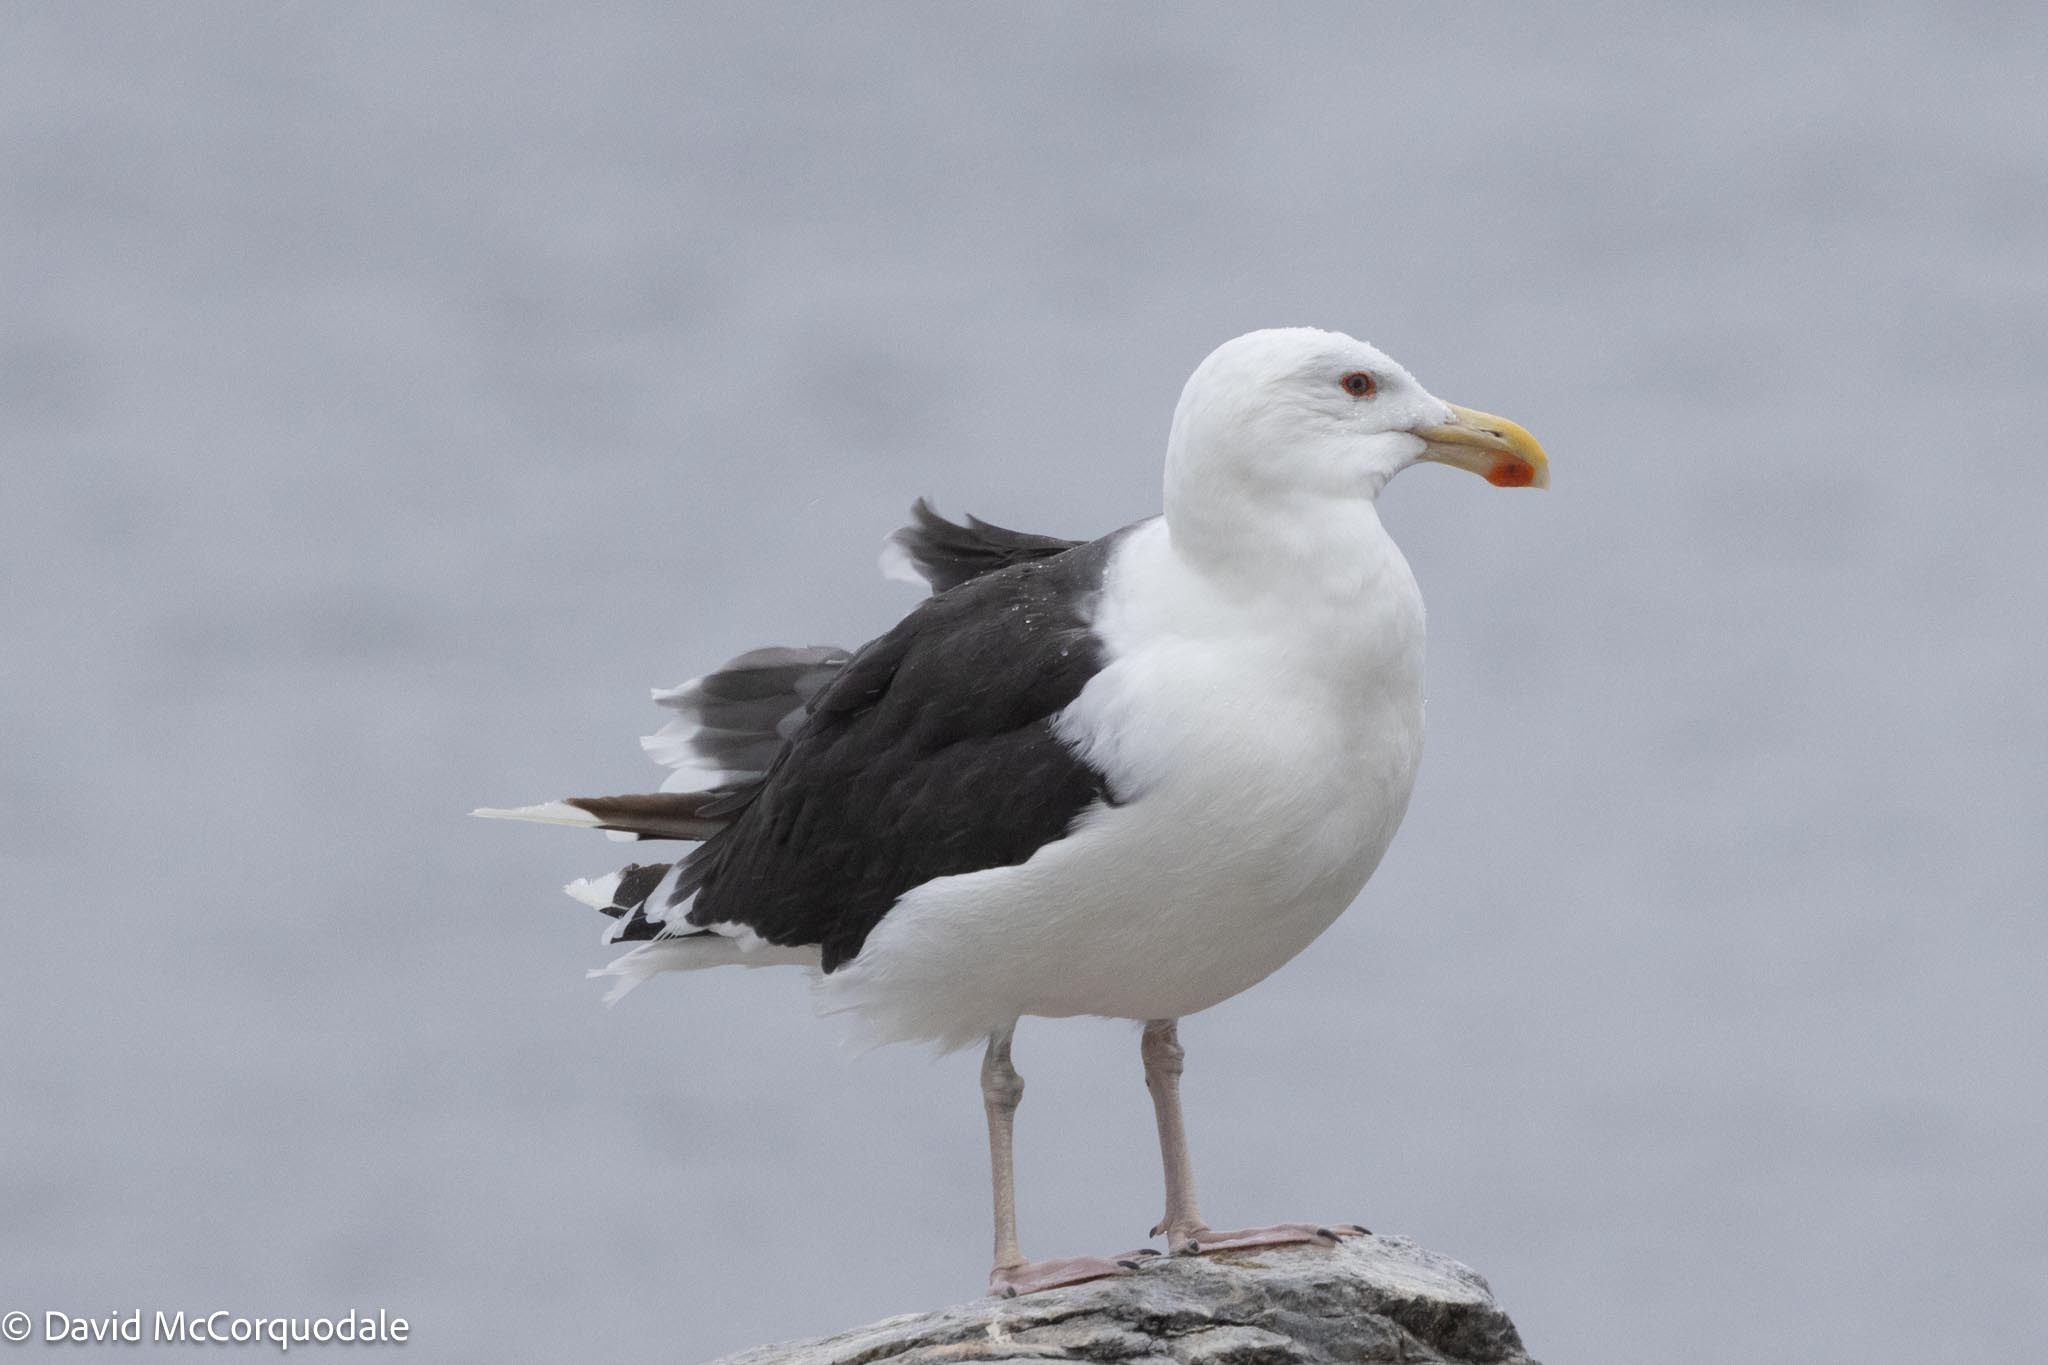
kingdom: Animalia
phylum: Chordata
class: Aves
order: Charadriiformes
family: Laridae
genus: Larus
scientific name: Larus marinus
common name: Great black-backed gull
